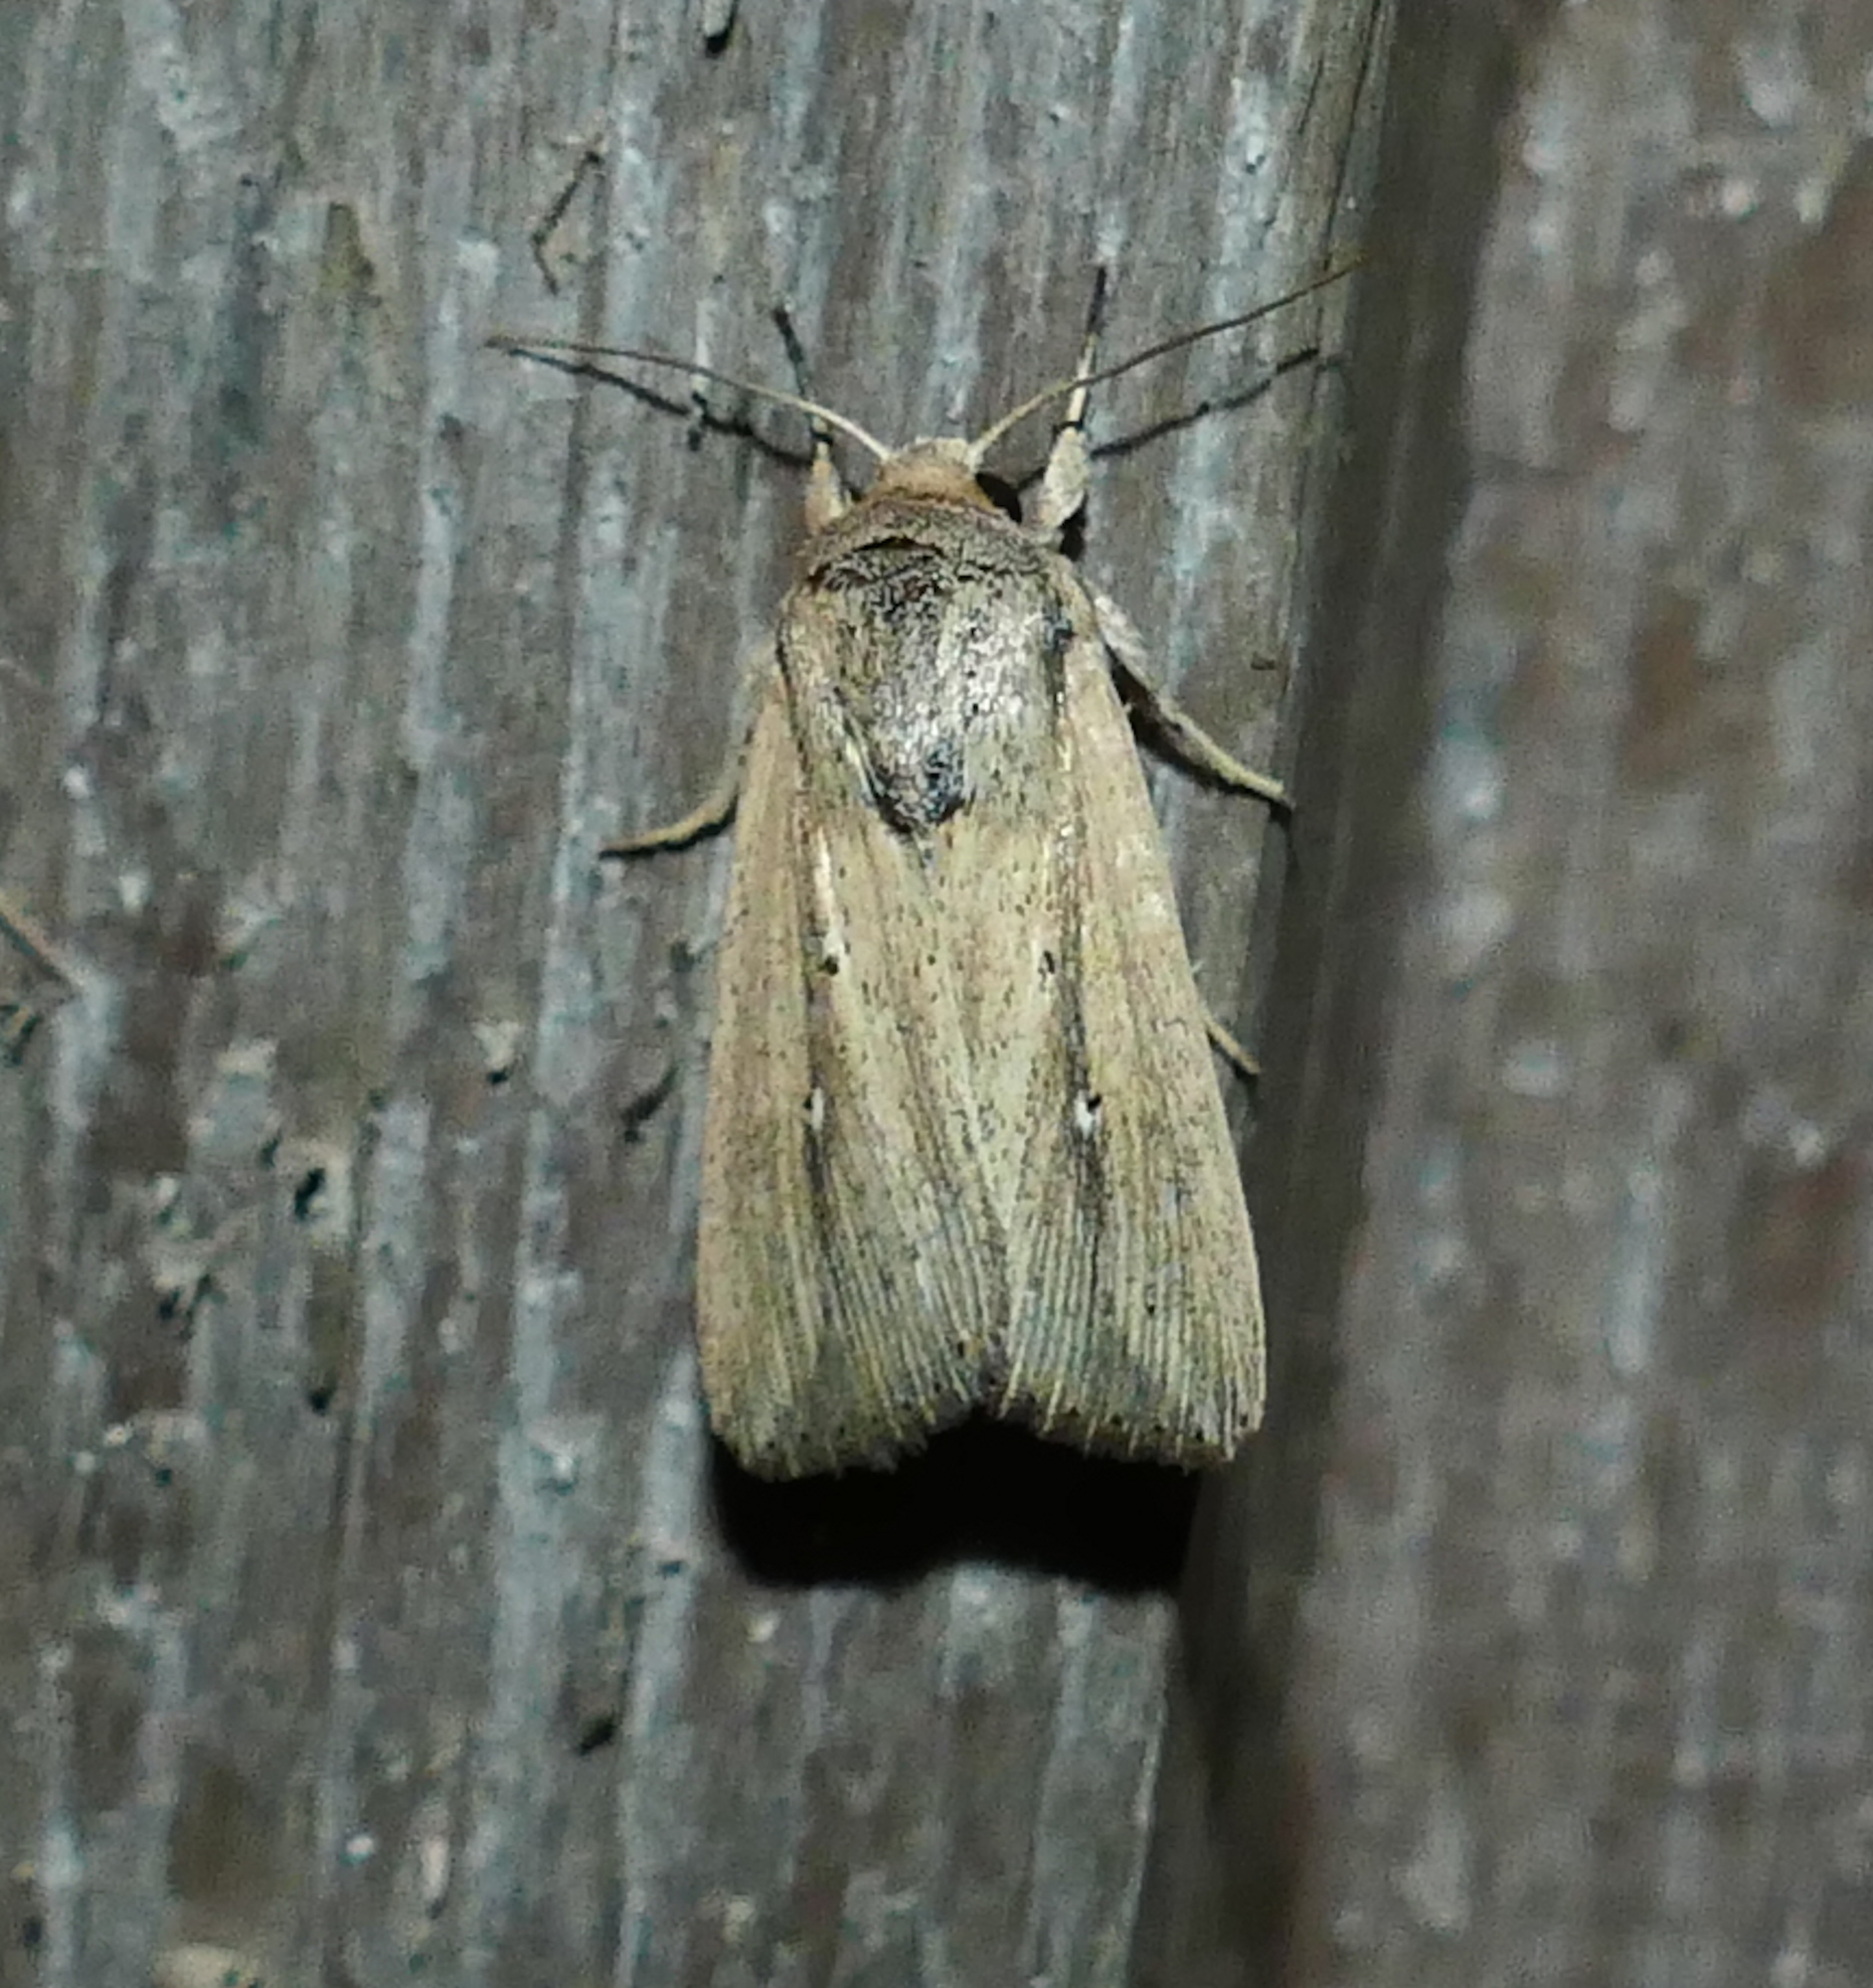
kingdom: Animalia
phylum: Arthropoda
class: Insecta
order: Lepidoptera
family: Noctuidae
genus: Leucania
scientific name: Leucania incognita
